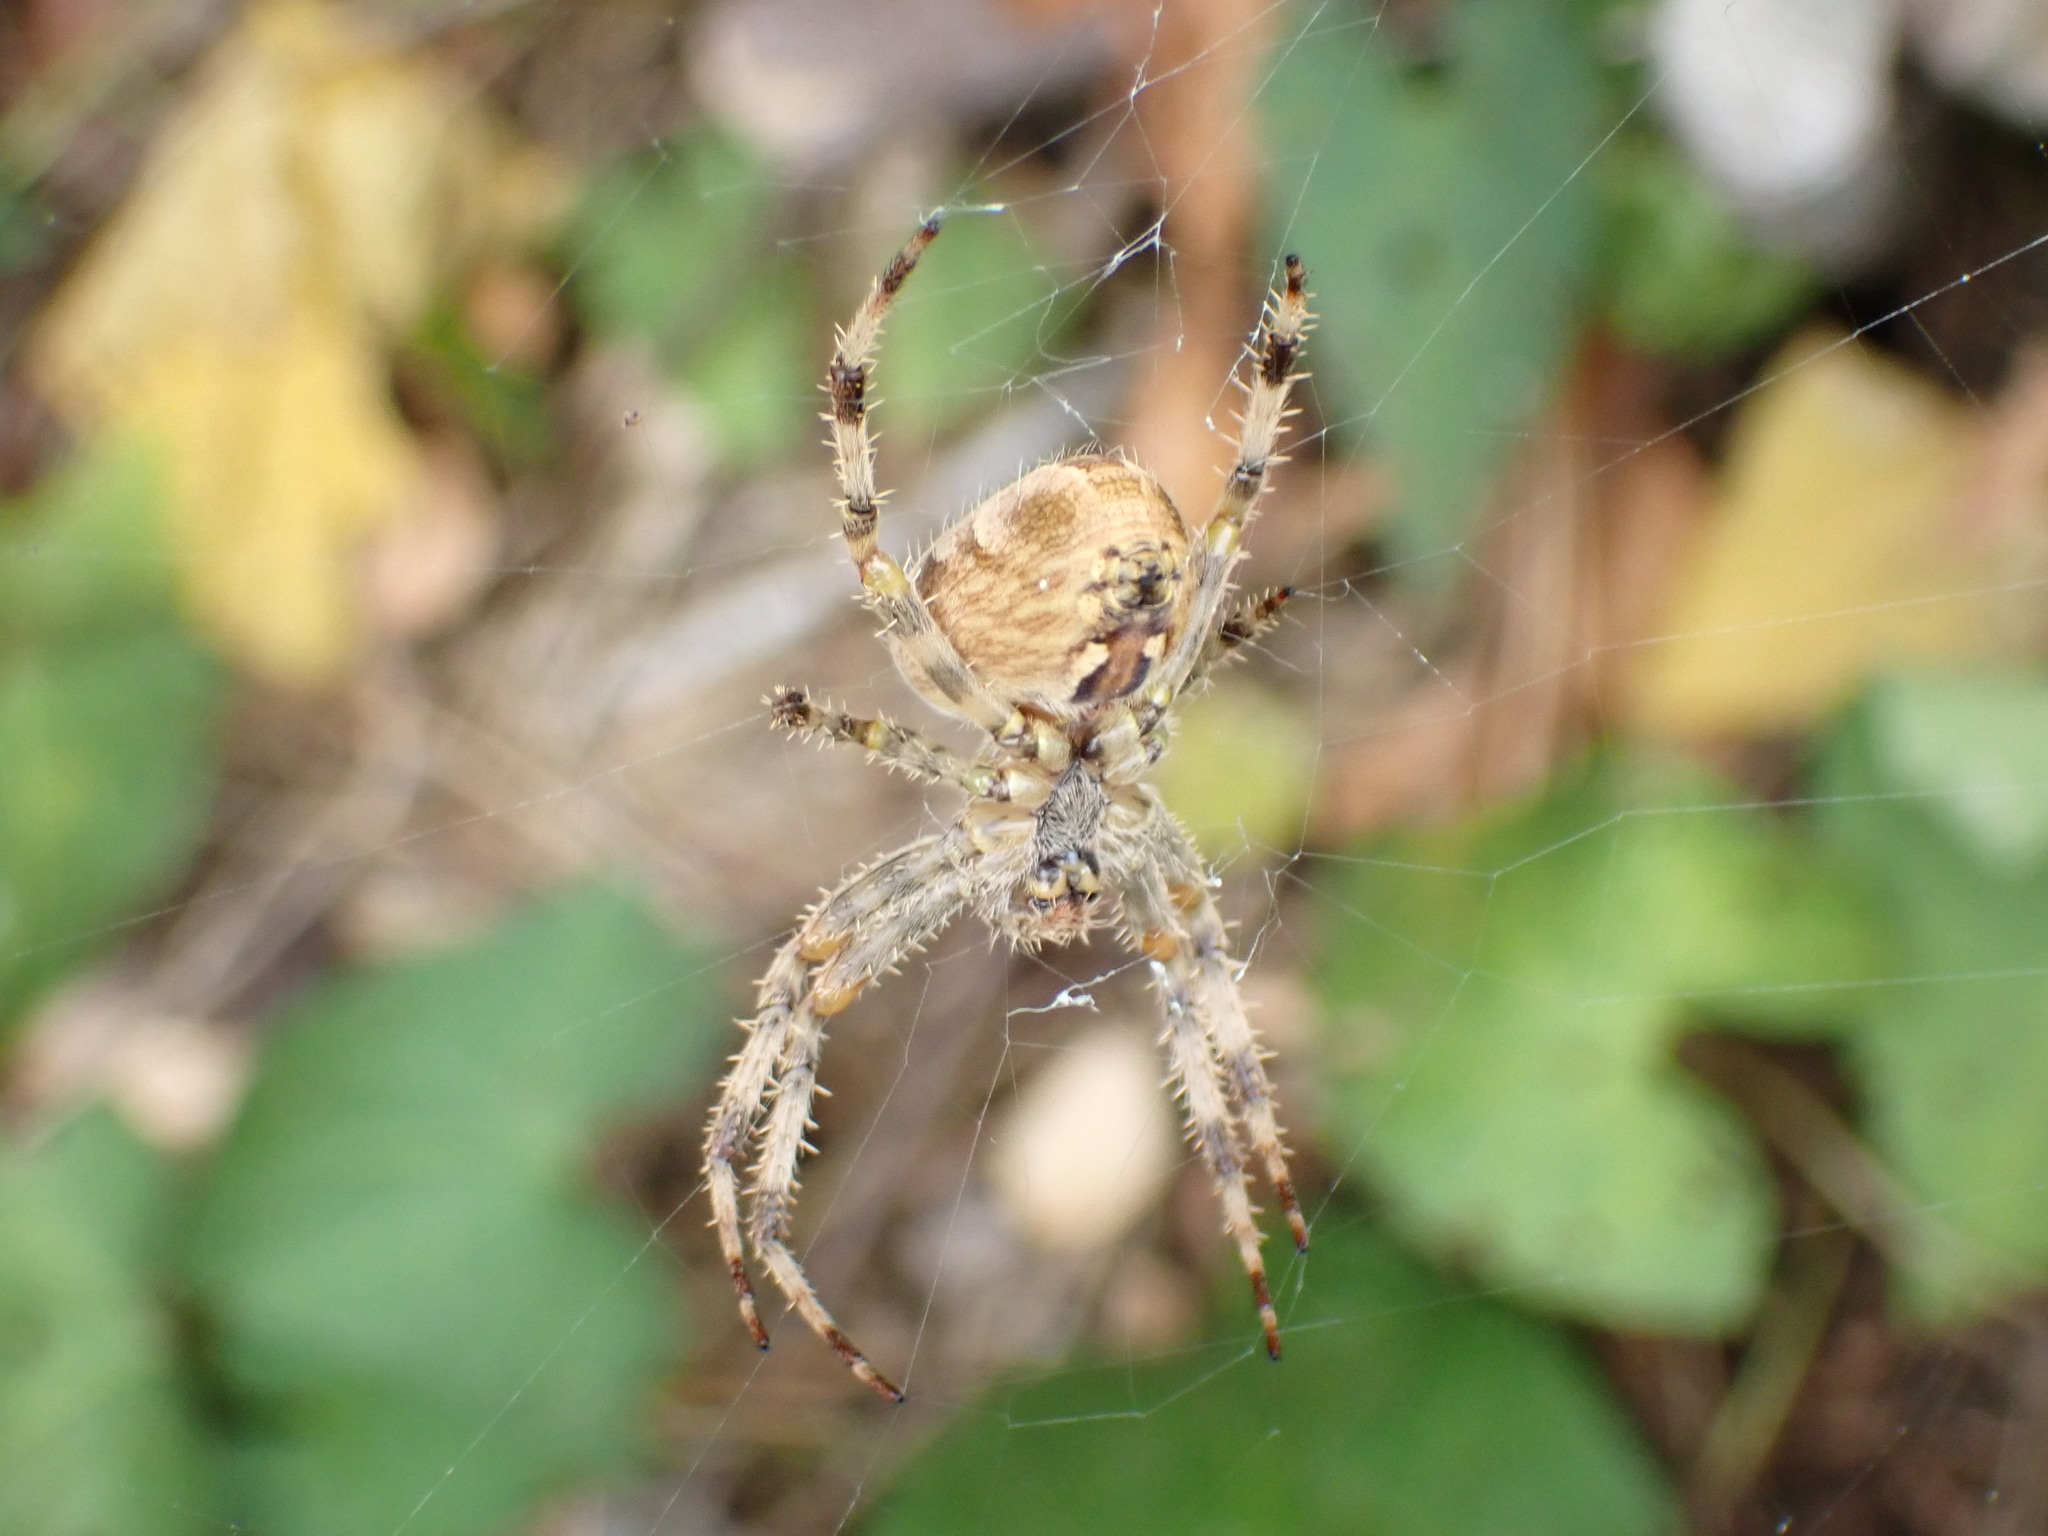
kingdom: Animalia
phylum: Arthropoda
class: Arachnida
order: Araneae
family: Araneidae
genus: Araneus
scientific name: Araneus diadematus
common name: Cross orbweaver
